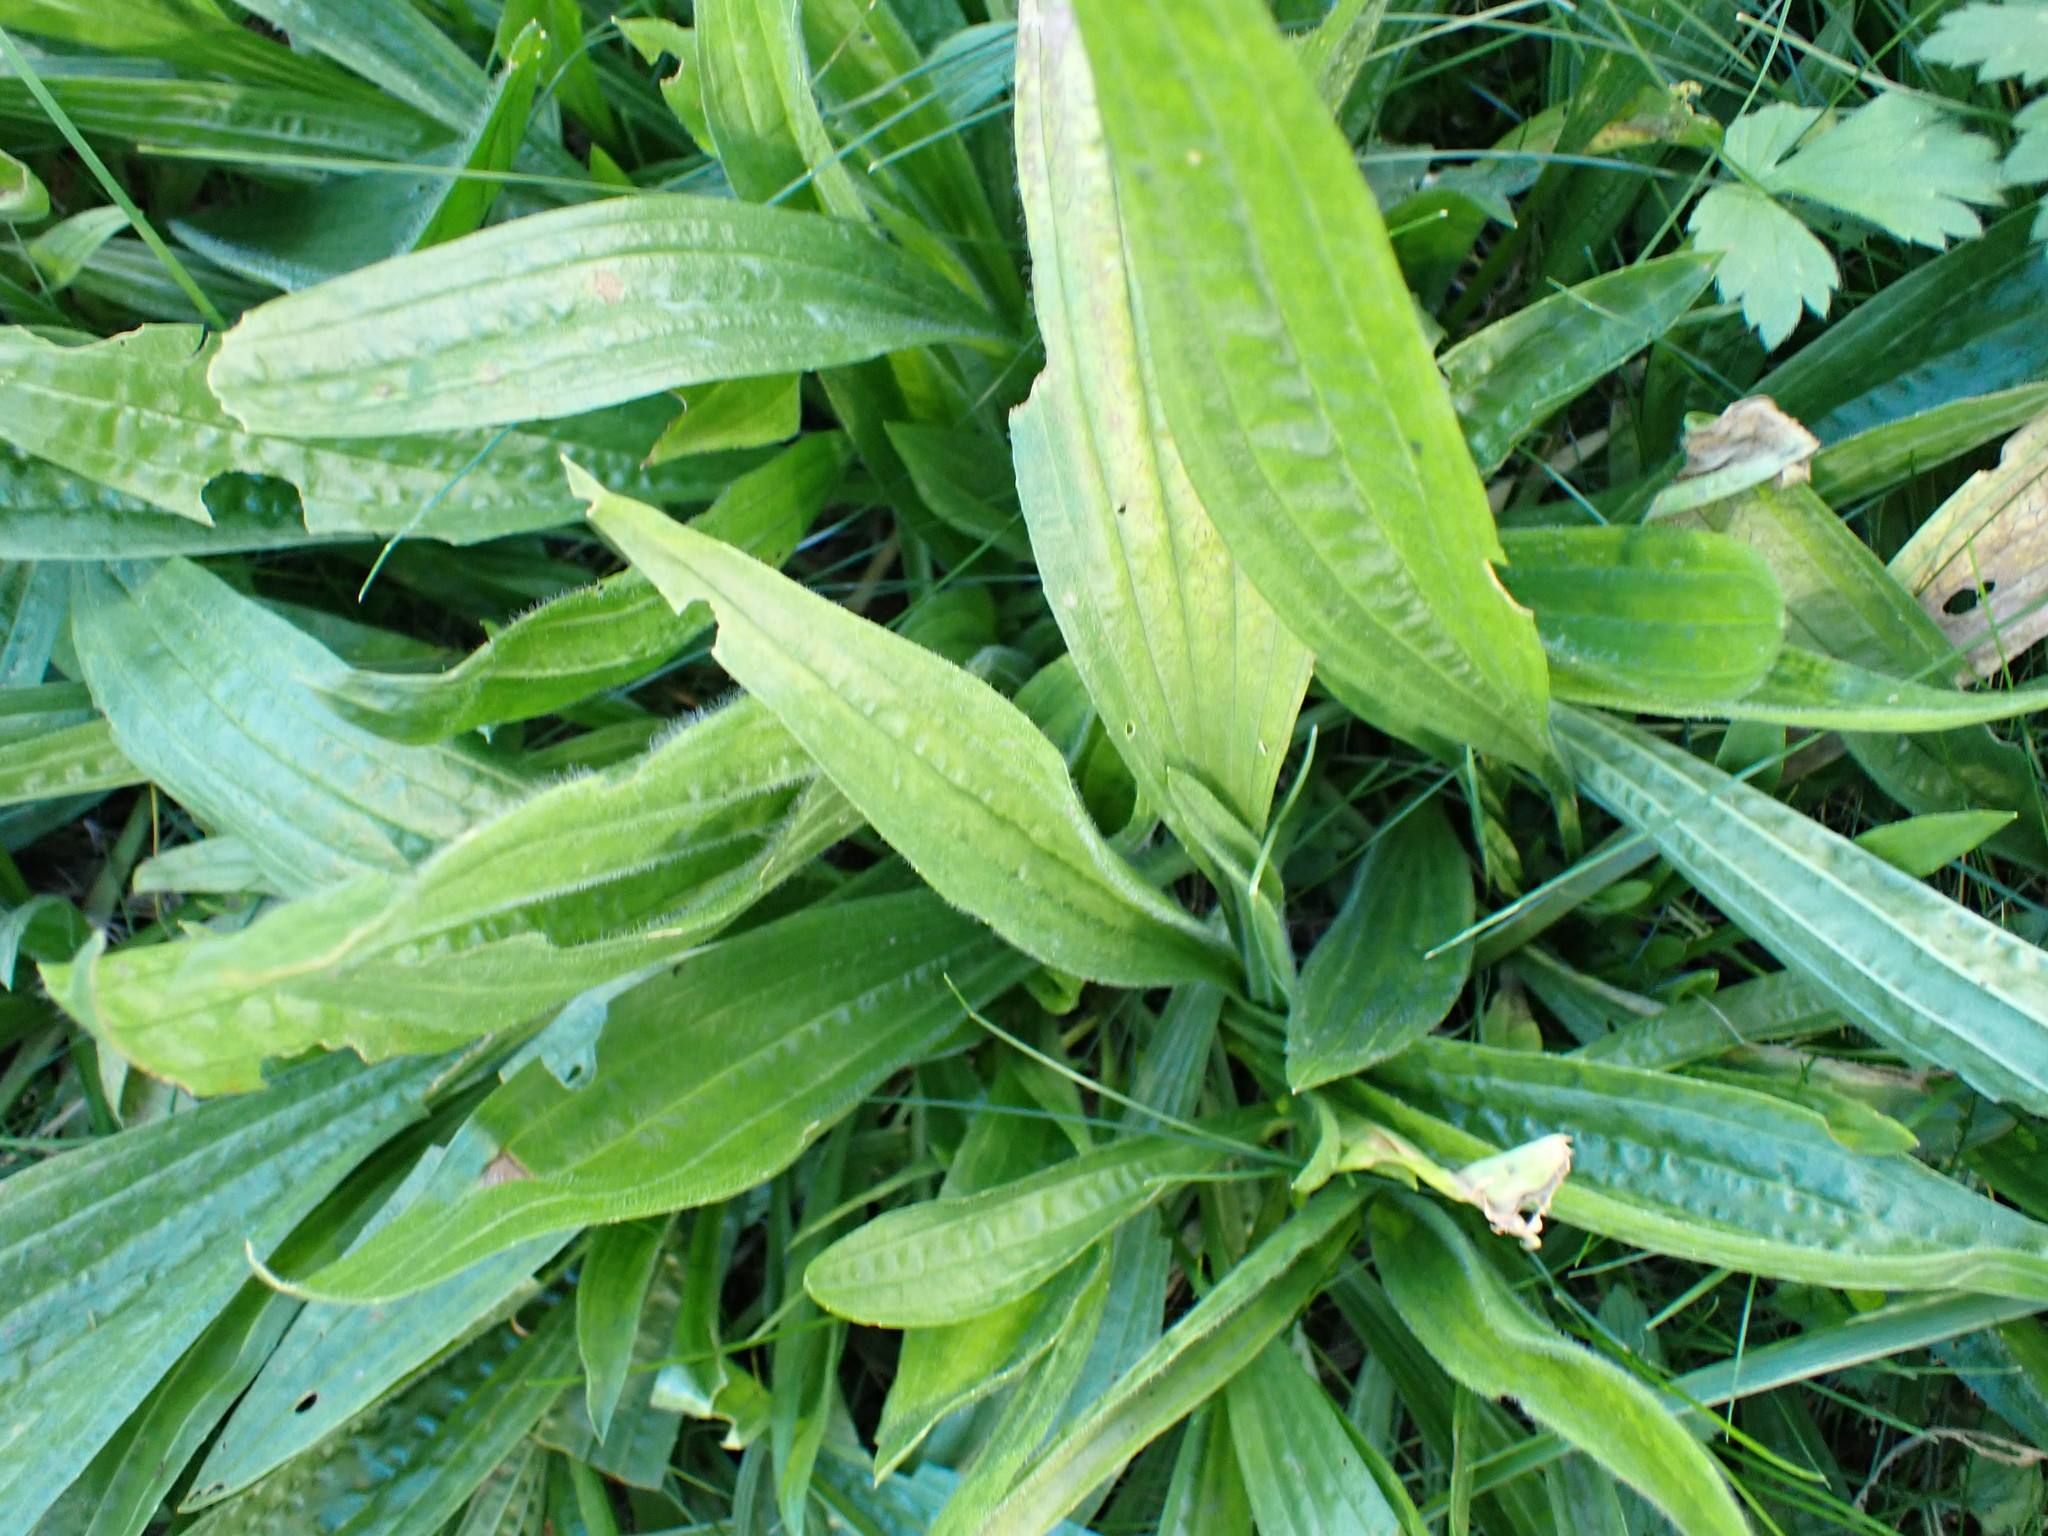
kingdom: Plantae
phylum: Tracheophyta
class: Magnoliopsida
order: Lamiales
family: Plantaginaceae
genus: Plantago
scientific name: Plantago lanceolata
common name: Ribwort plantain
